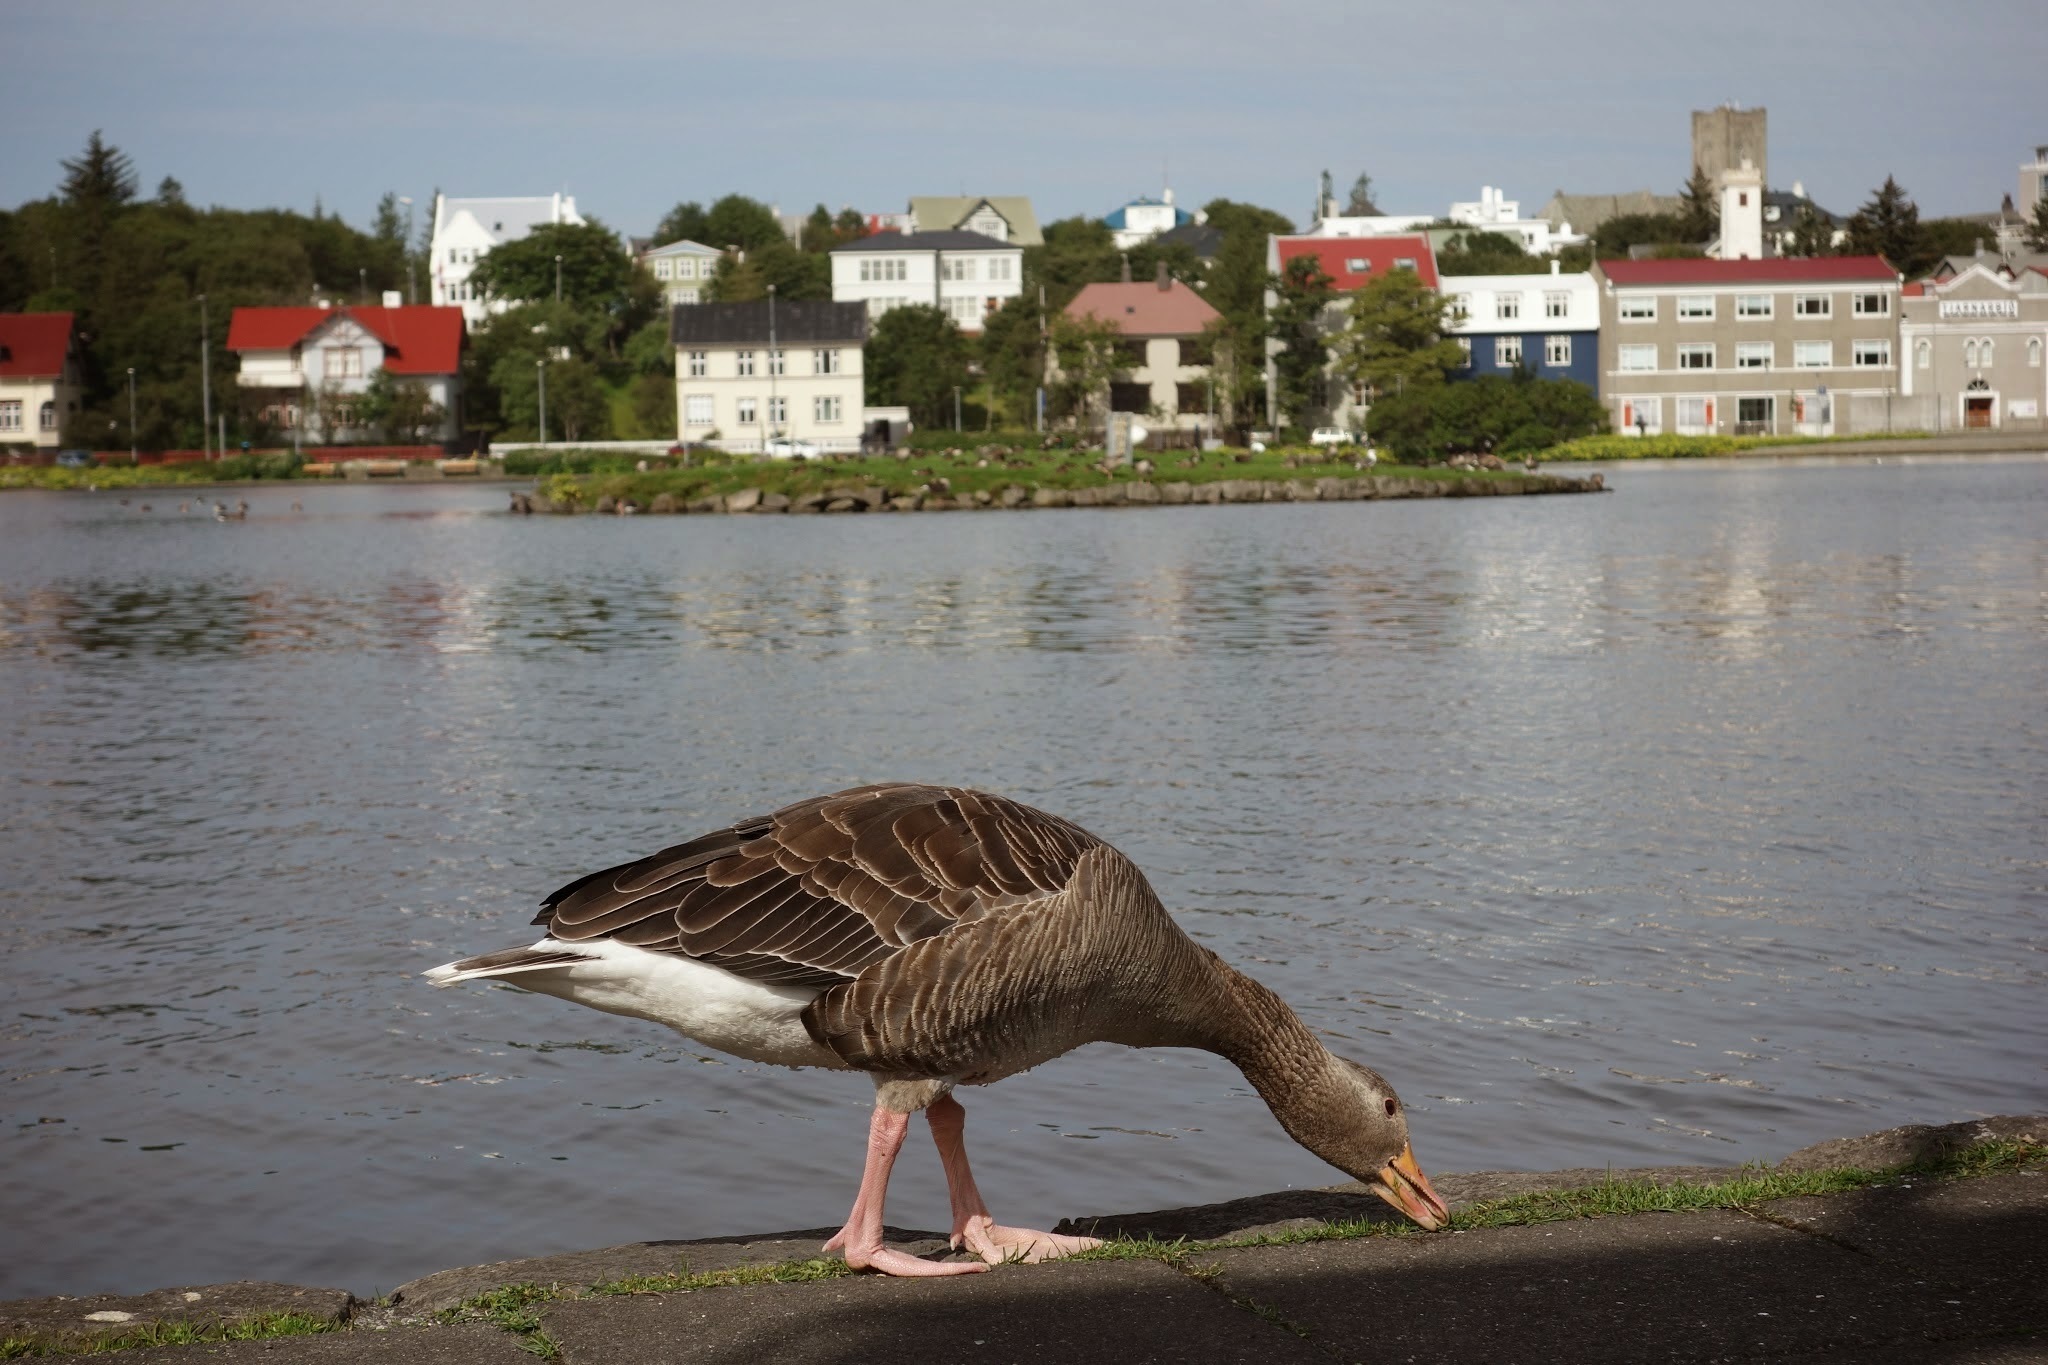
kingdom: Animalia
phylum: Chordata
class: Aves
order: Anseriformes
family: Anatidae
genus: Anser
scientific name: Anser anser
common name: Greylag goose
